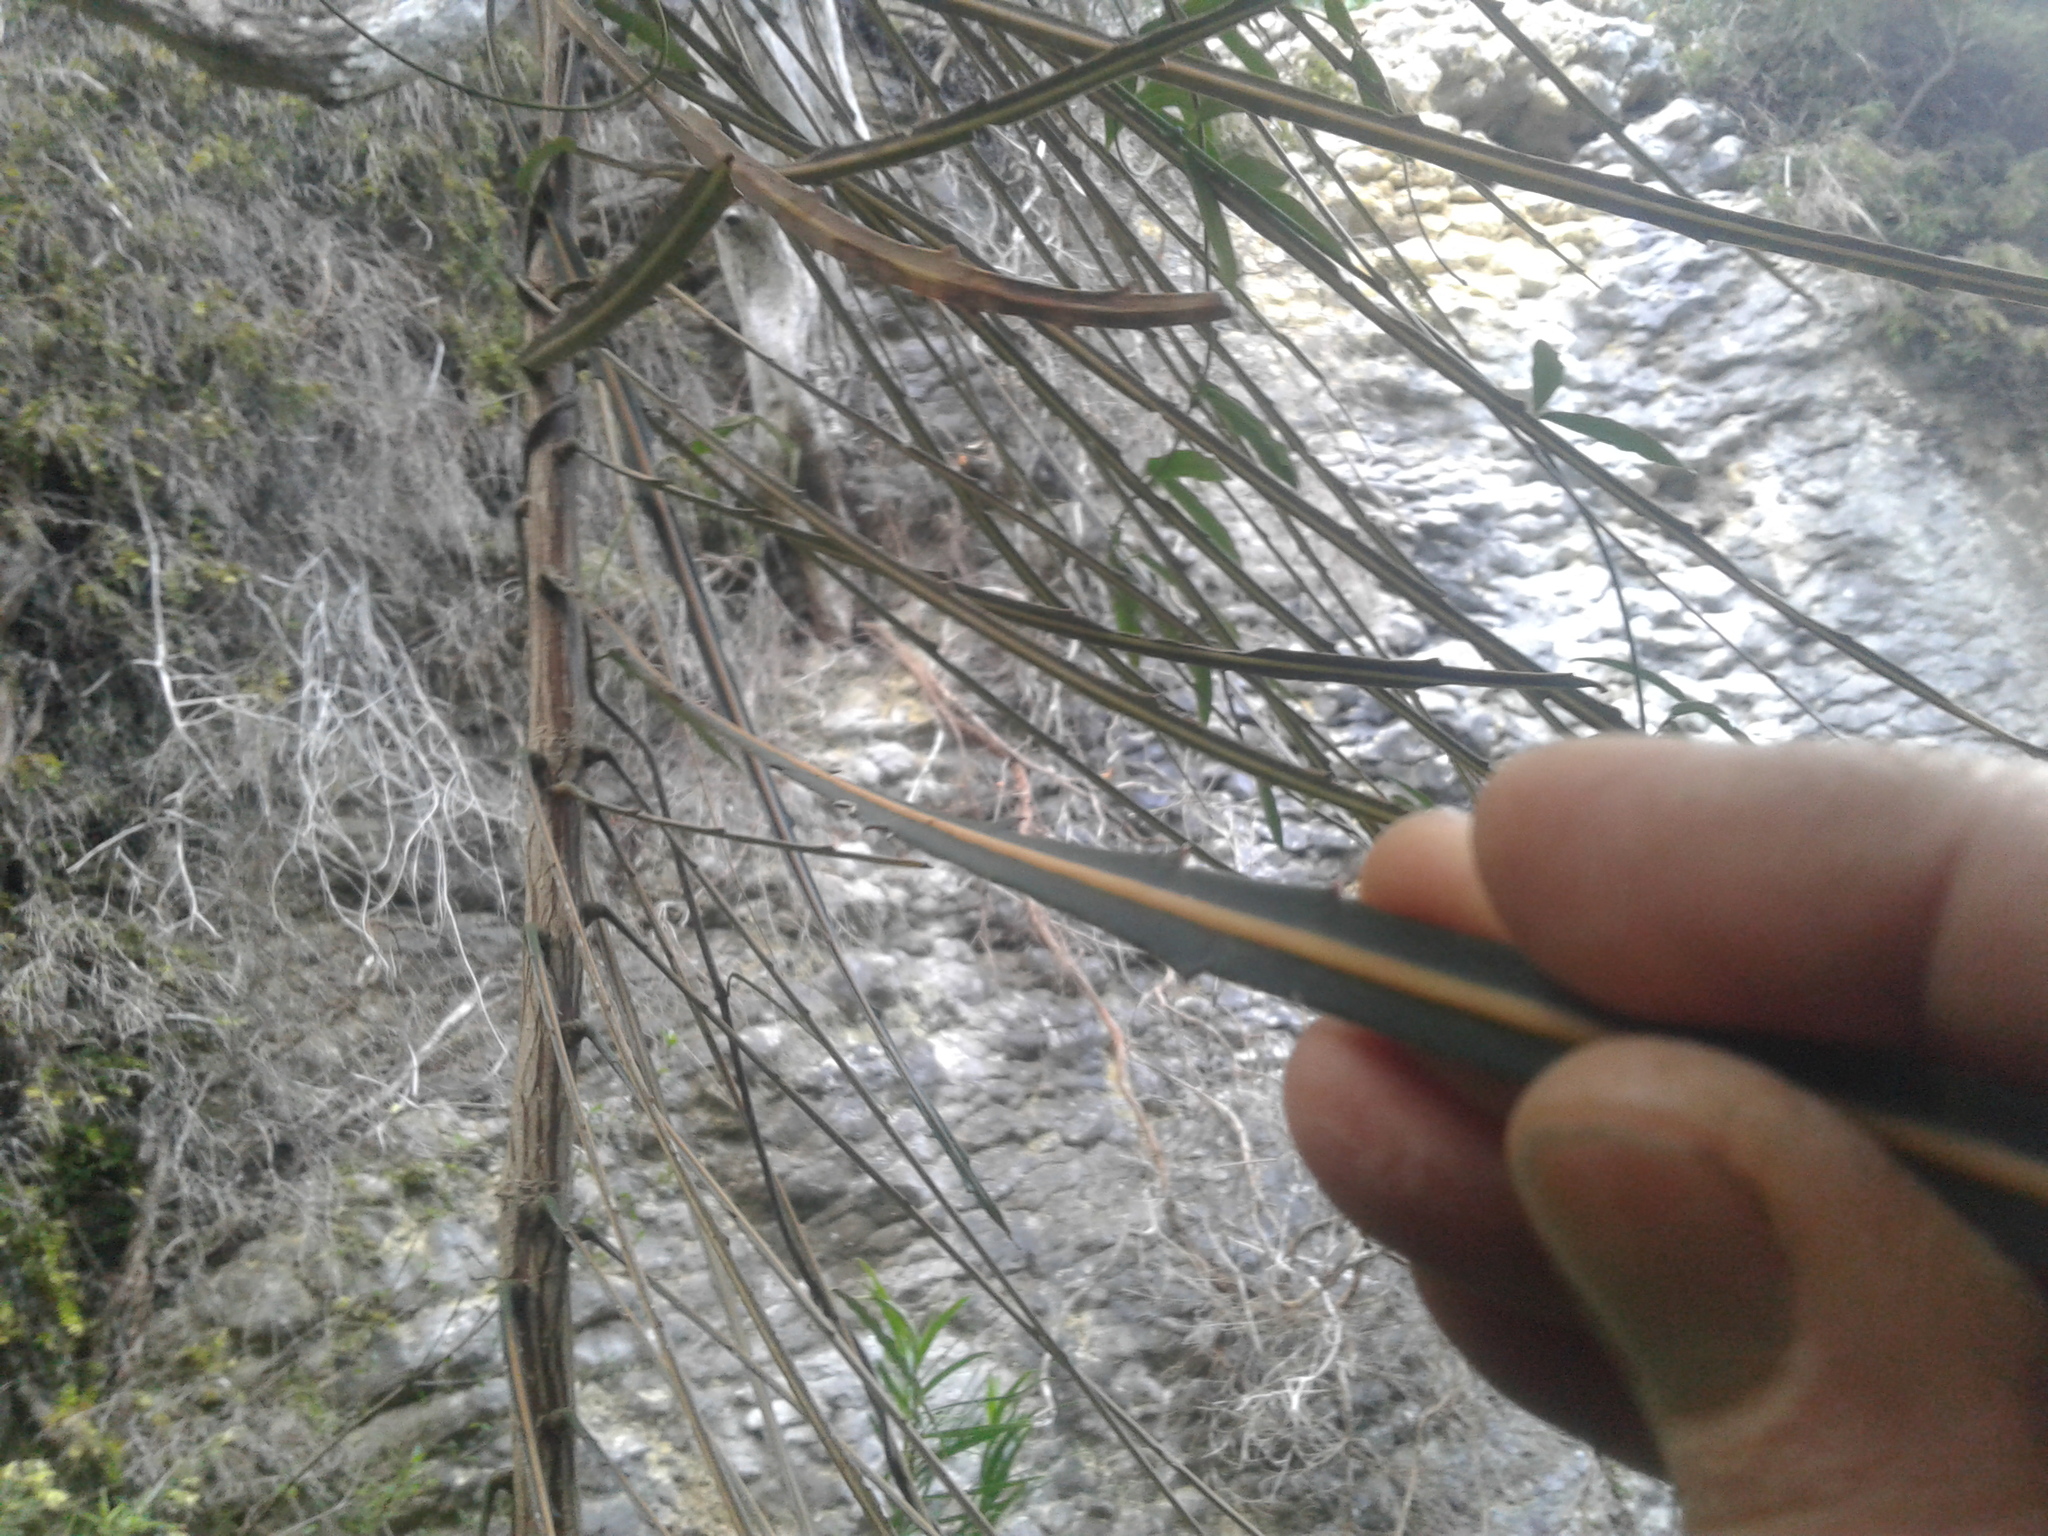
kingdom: Plantae
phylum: Tracheophyta
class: Magnoliopsida
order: Apiales
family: Araliaceae
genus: Pseudopanax
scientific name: Pseudopanax crassifolius
